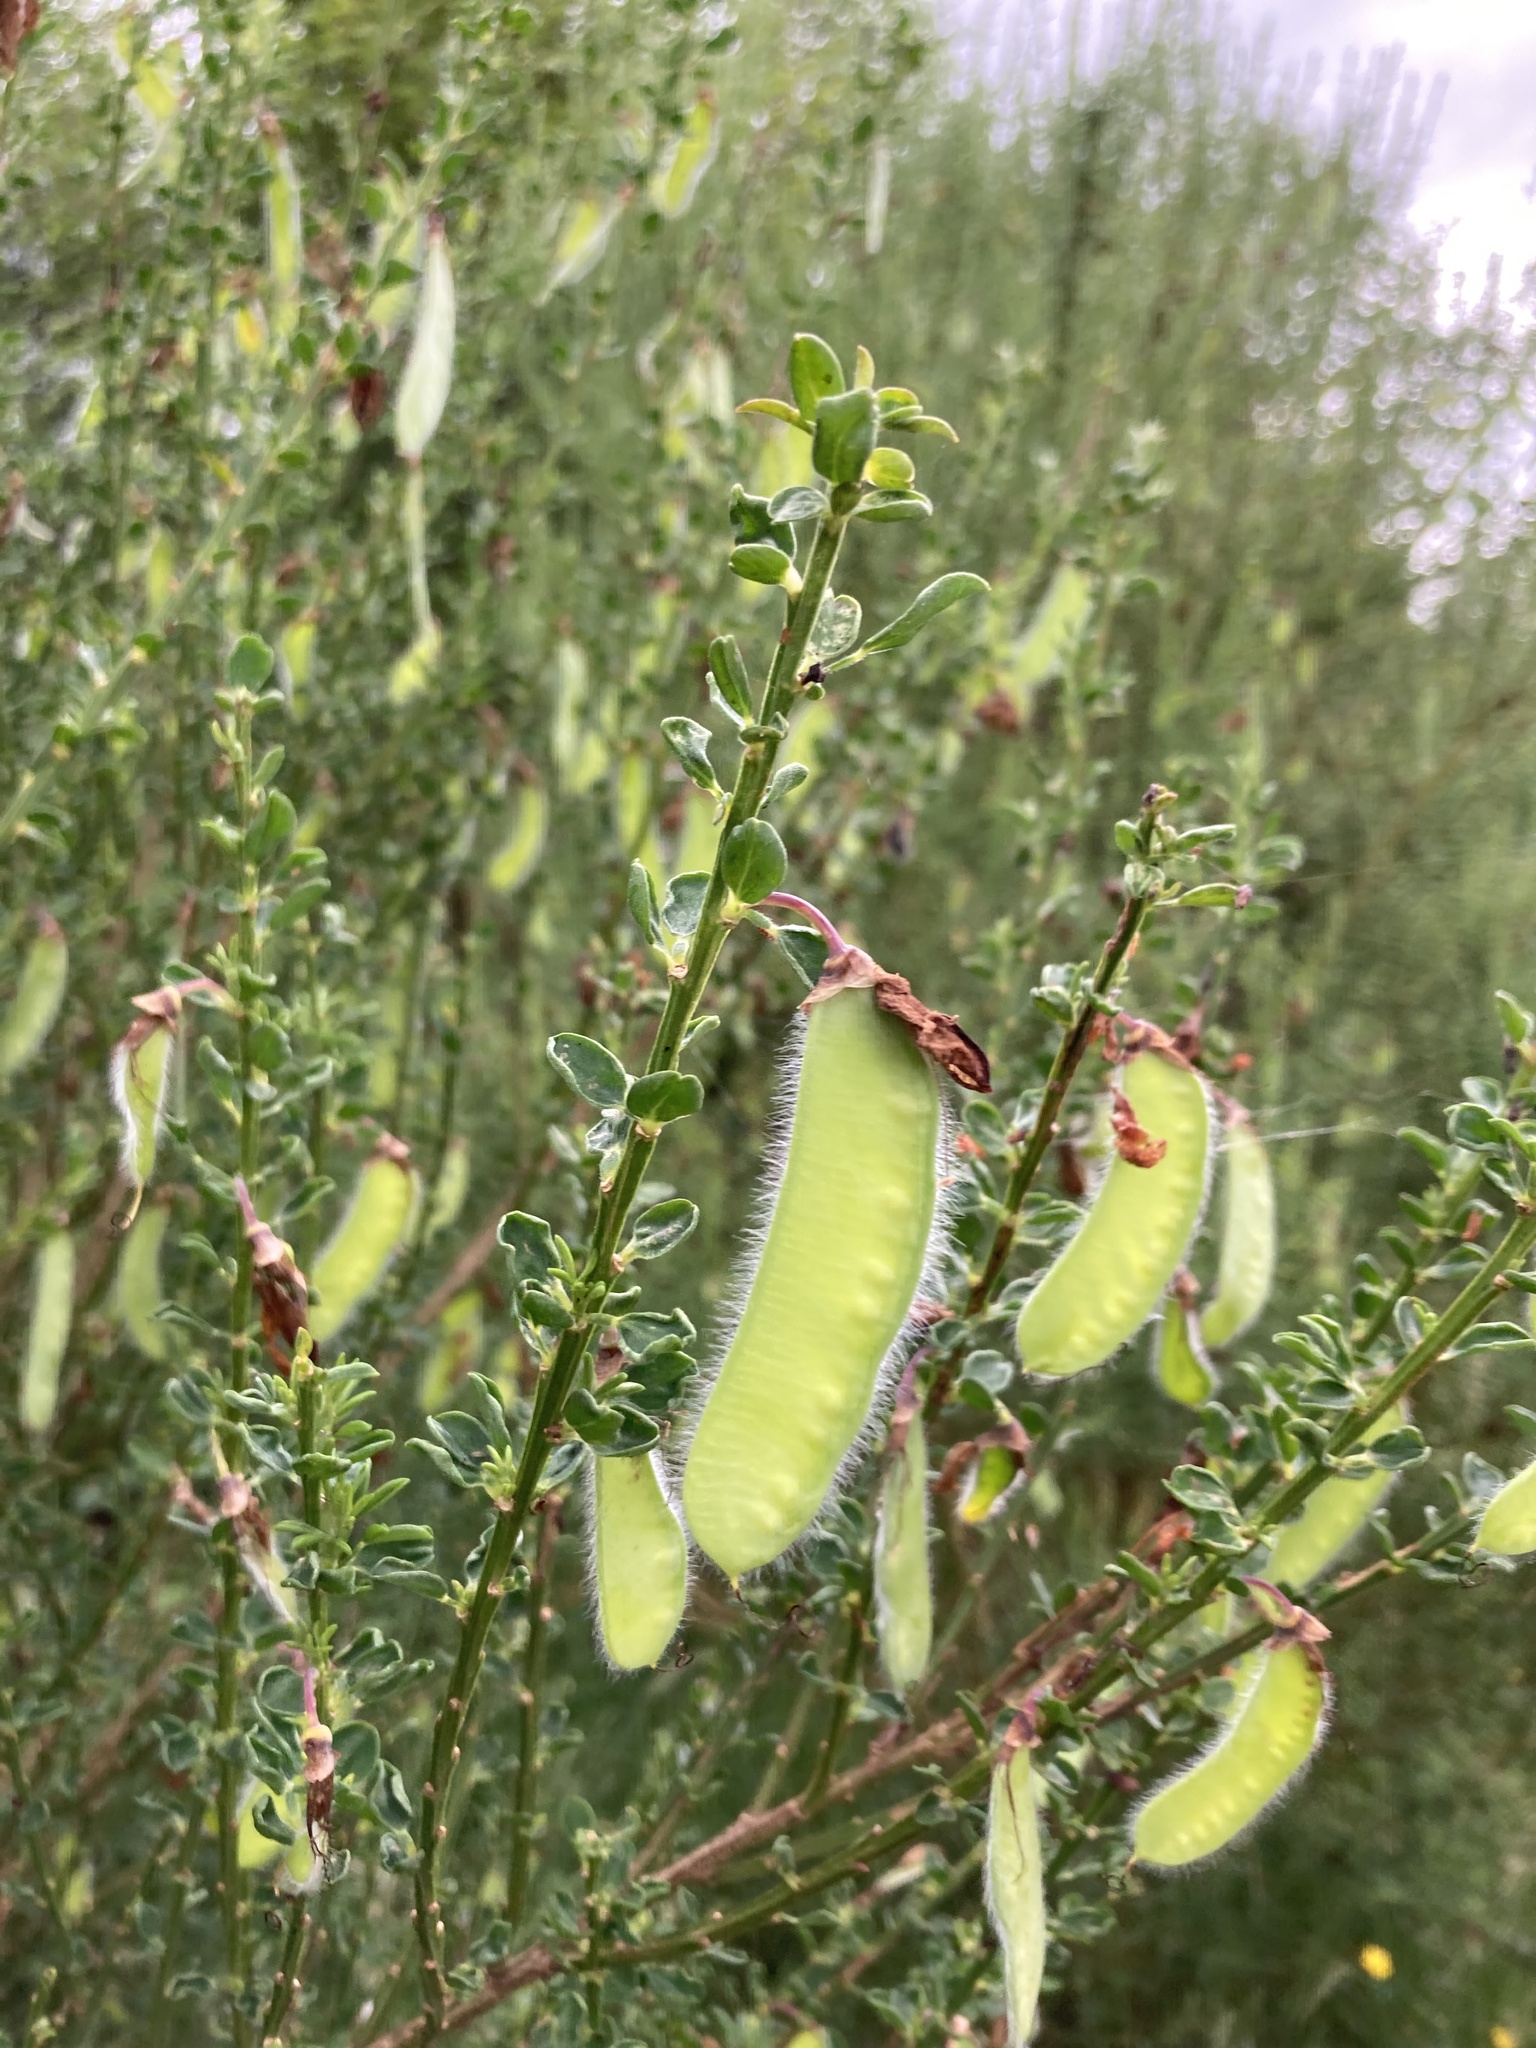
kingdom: Plantae
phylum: Tracheophyta
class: Magnoliopsida
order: Fabales
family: Fabaceae
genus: Cytisus
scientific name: Cytisus scoparius
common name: Scotch broom
